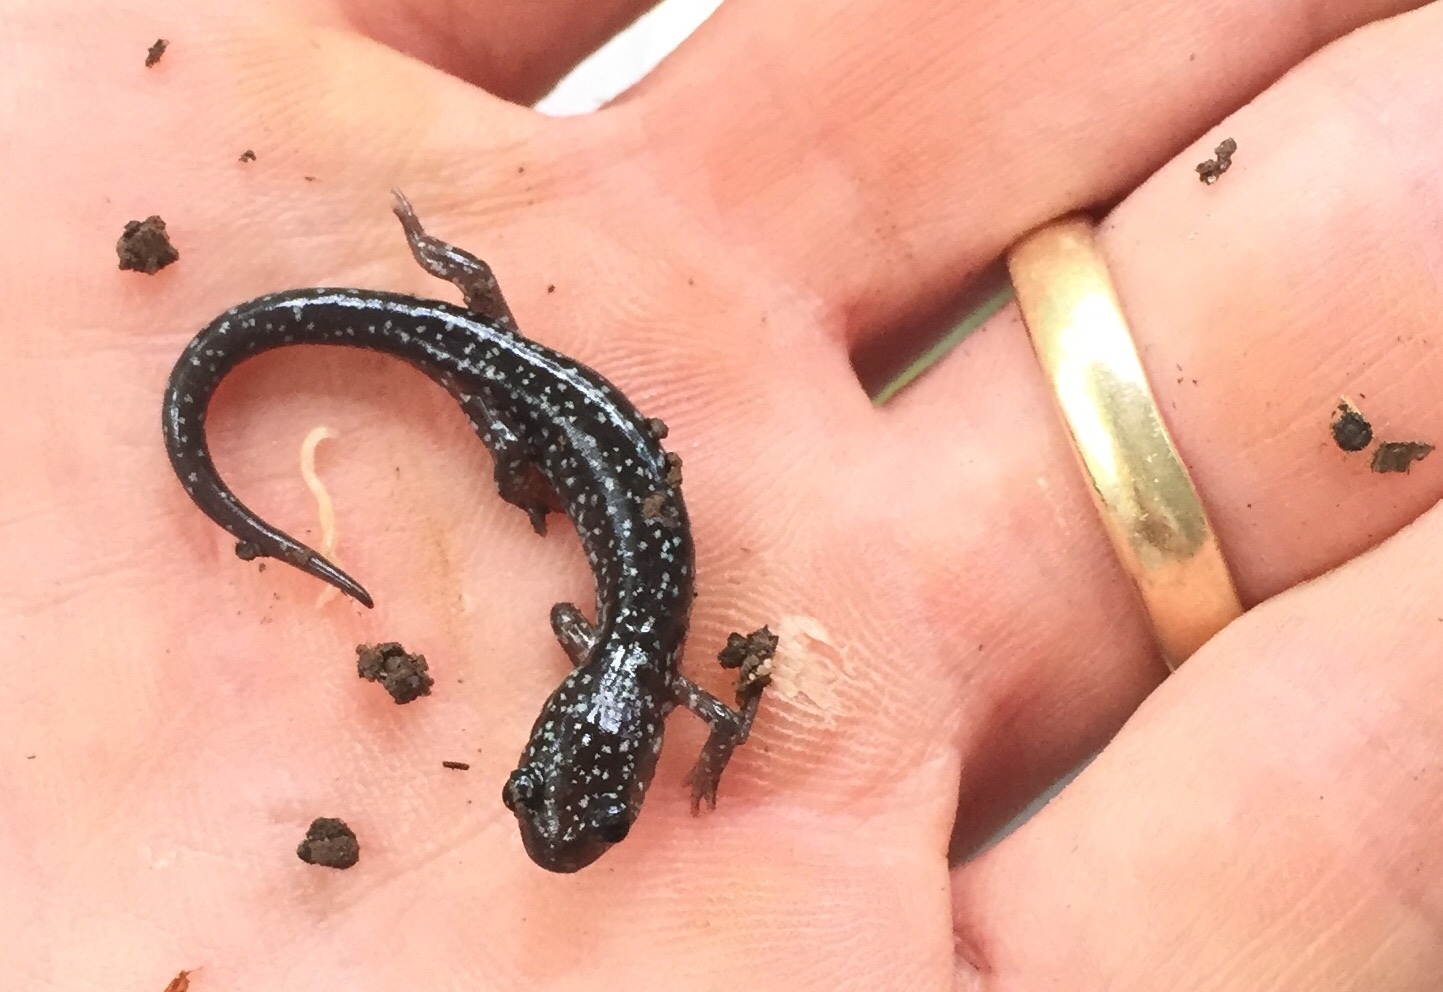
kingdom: Animalia
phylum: Chordata
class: Amphibia
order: Caudata
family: Plethodontidae
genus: Plethodon
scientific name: Plethodon cylindraceus
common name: White-spotted slimy salamander
